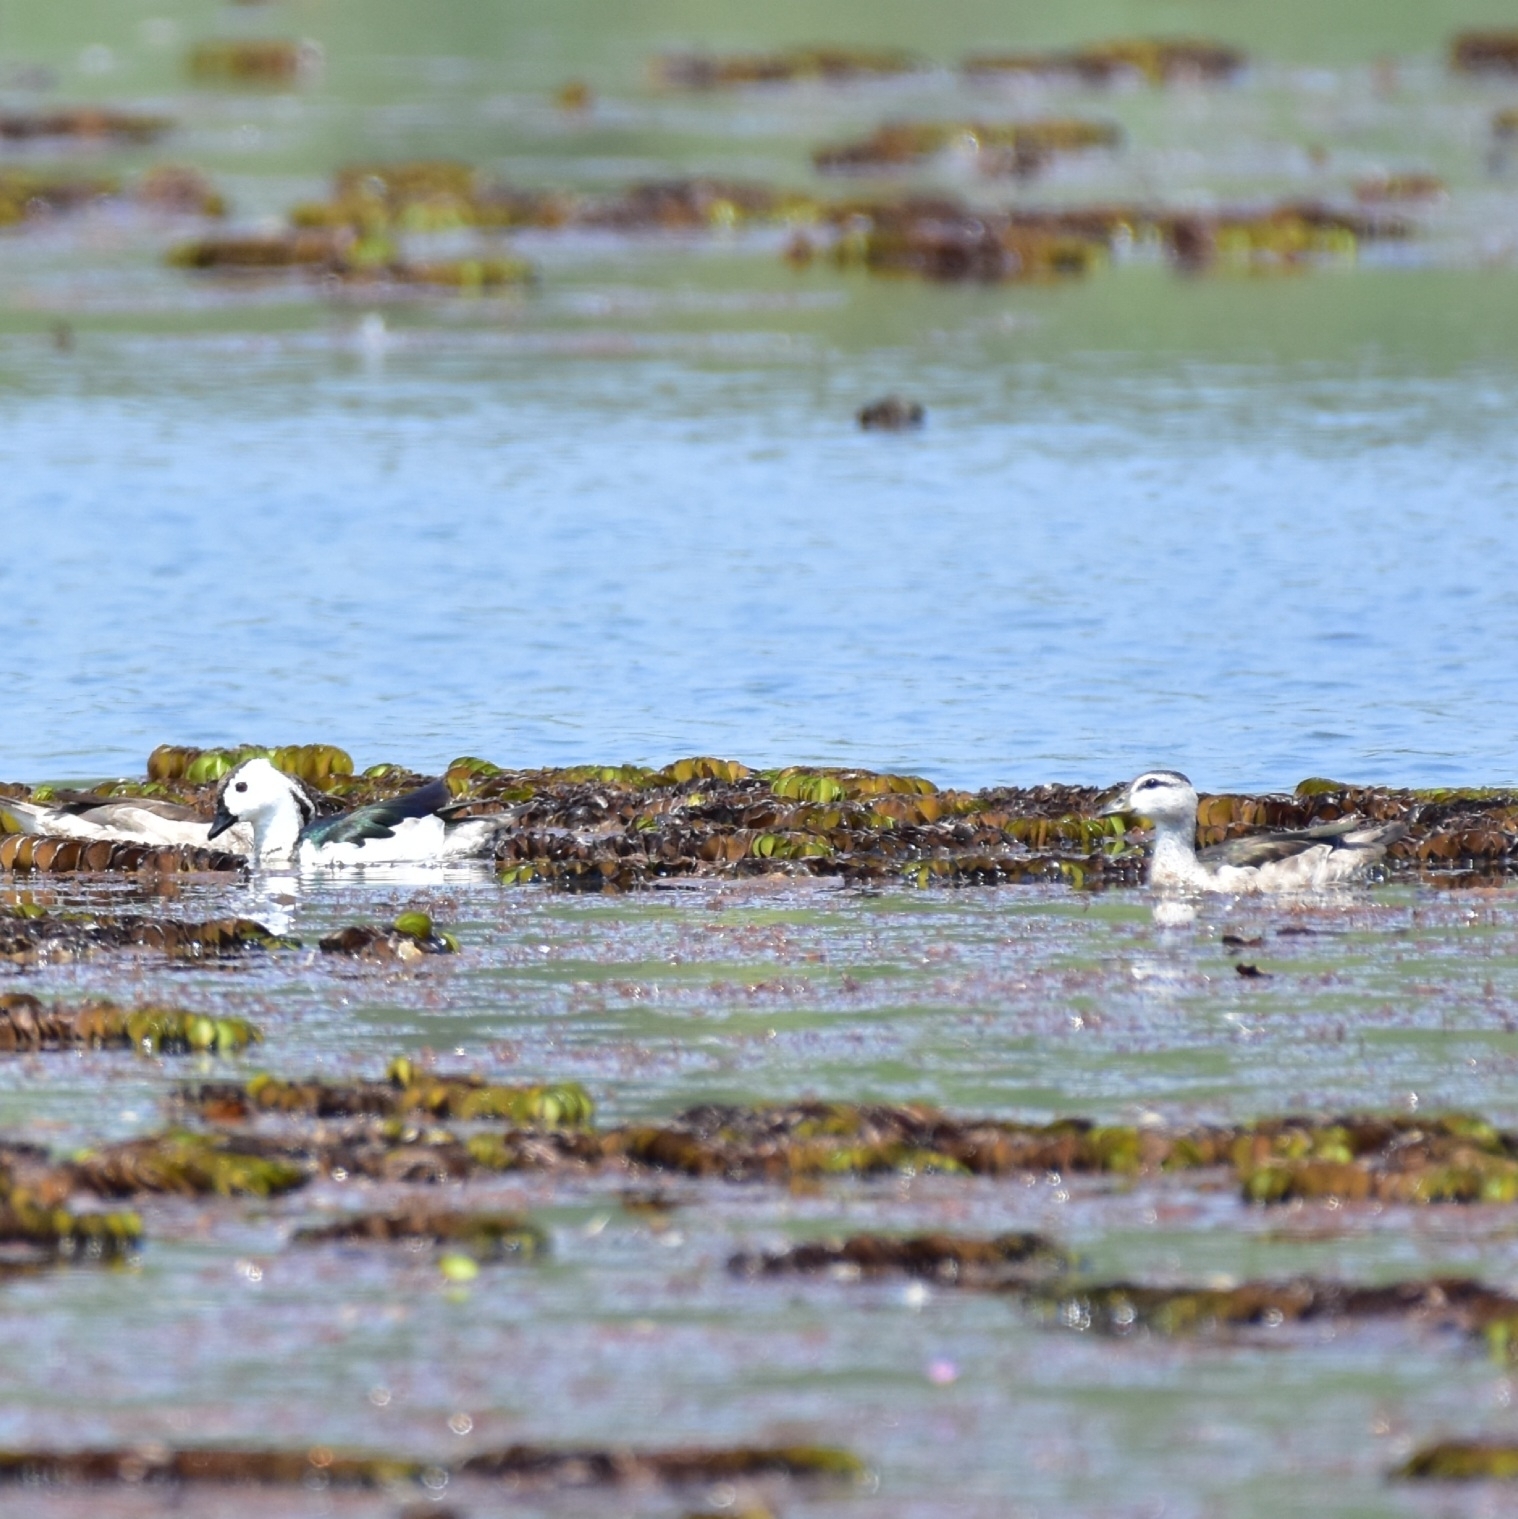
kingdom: Animalia
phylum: Chordata
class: Aves
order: Anseriformes
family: Anatidae
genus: Nettapus
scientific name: Nettapus coromandelianus
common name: Cotton pygmy-goose
